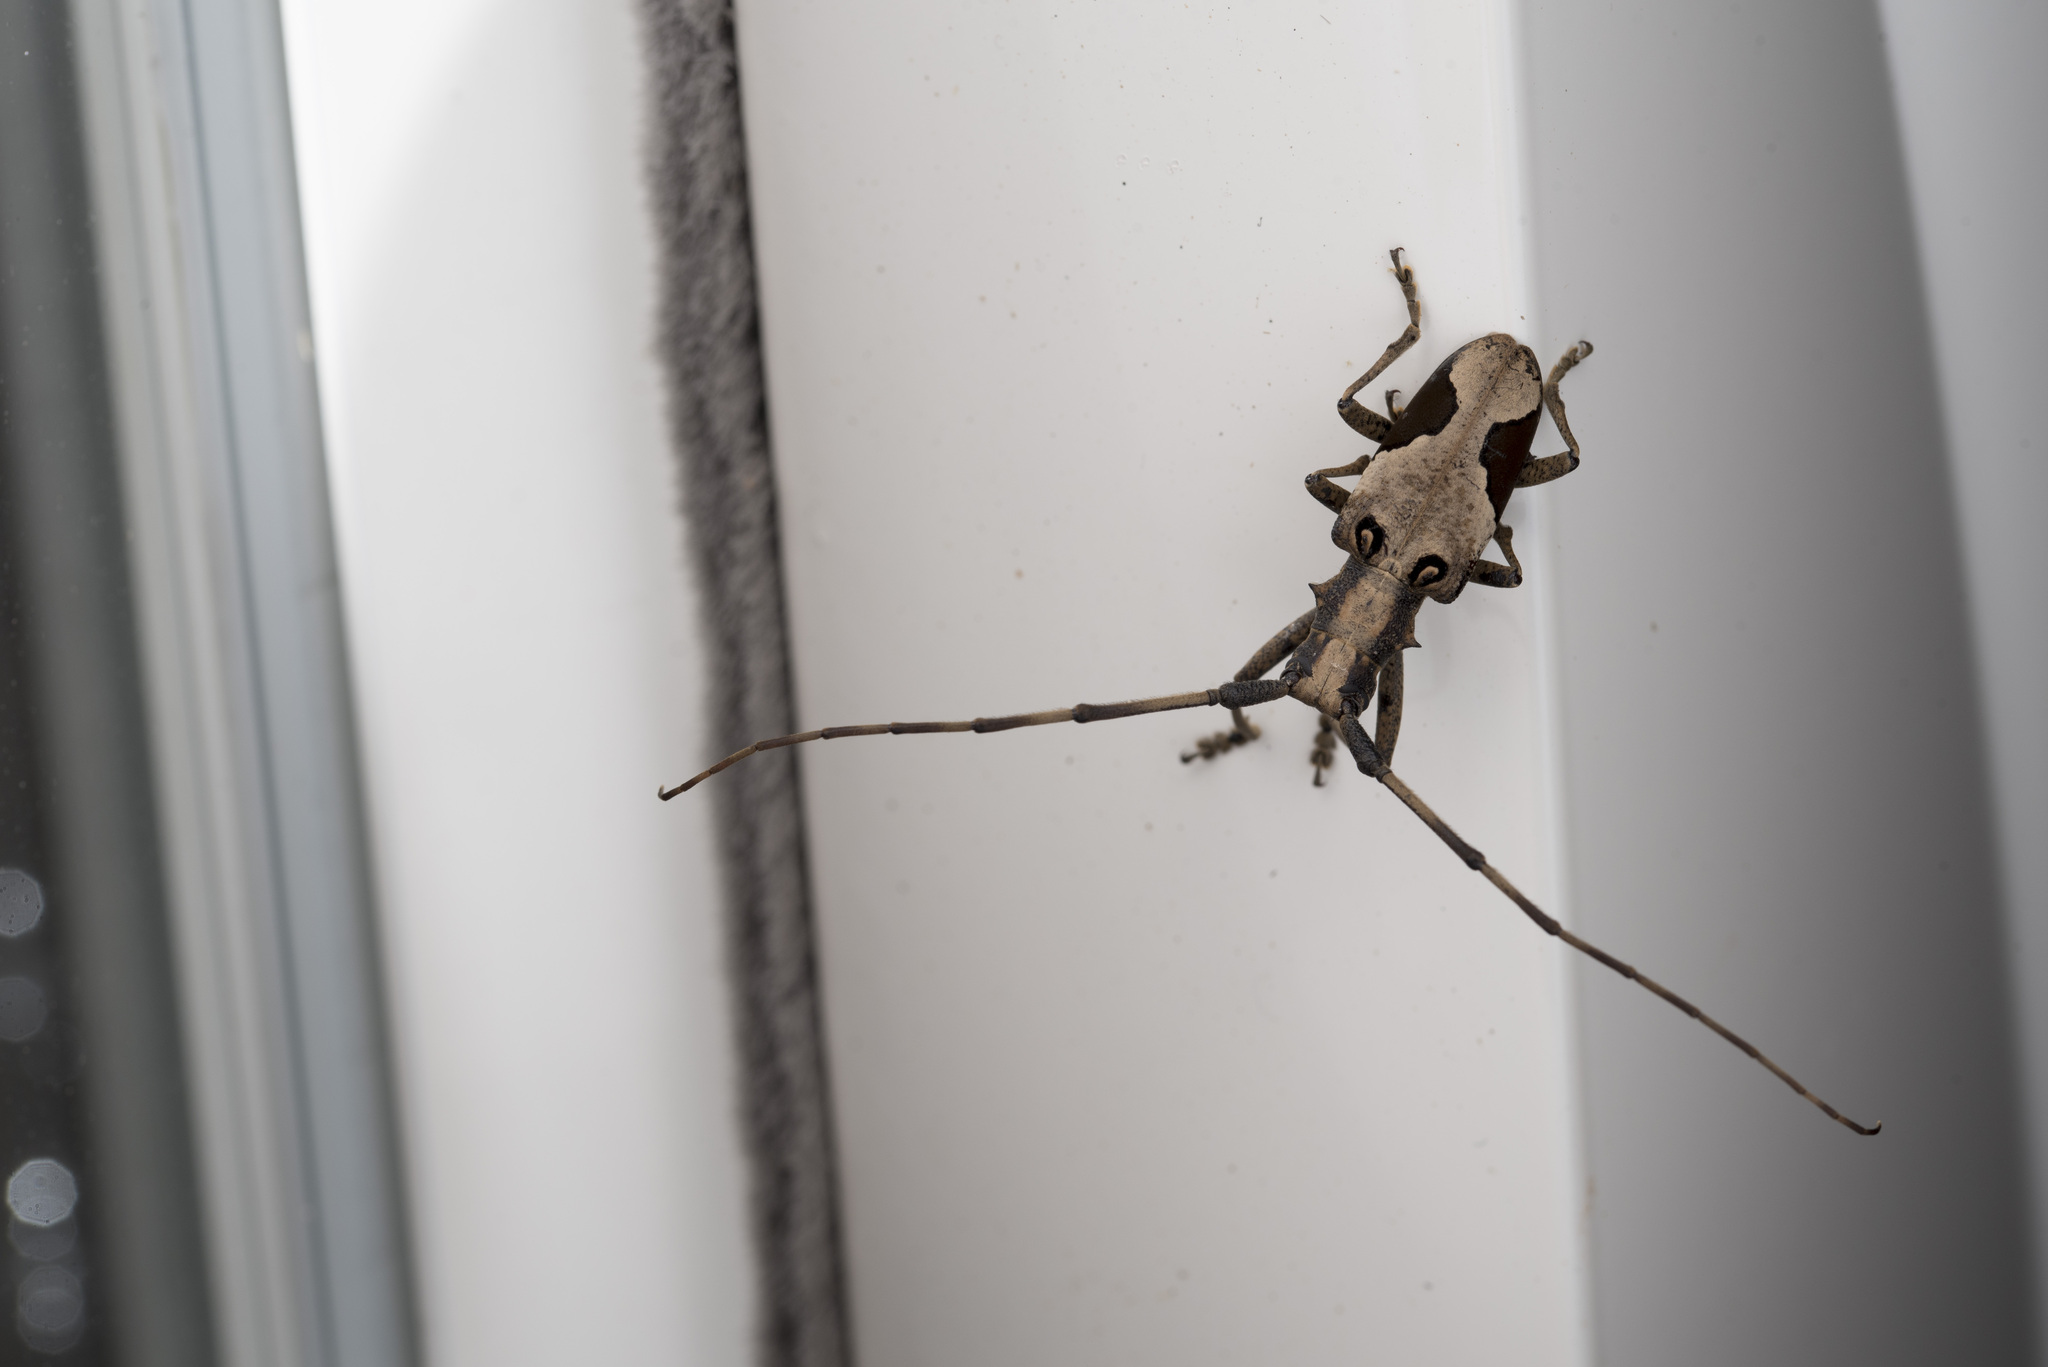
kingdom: Animalia
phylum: Arthropoda
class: Insecta
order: Coleoptera
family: Cerambycidae
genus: Paraleprodera
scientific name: Paraleprodera diophthalma
